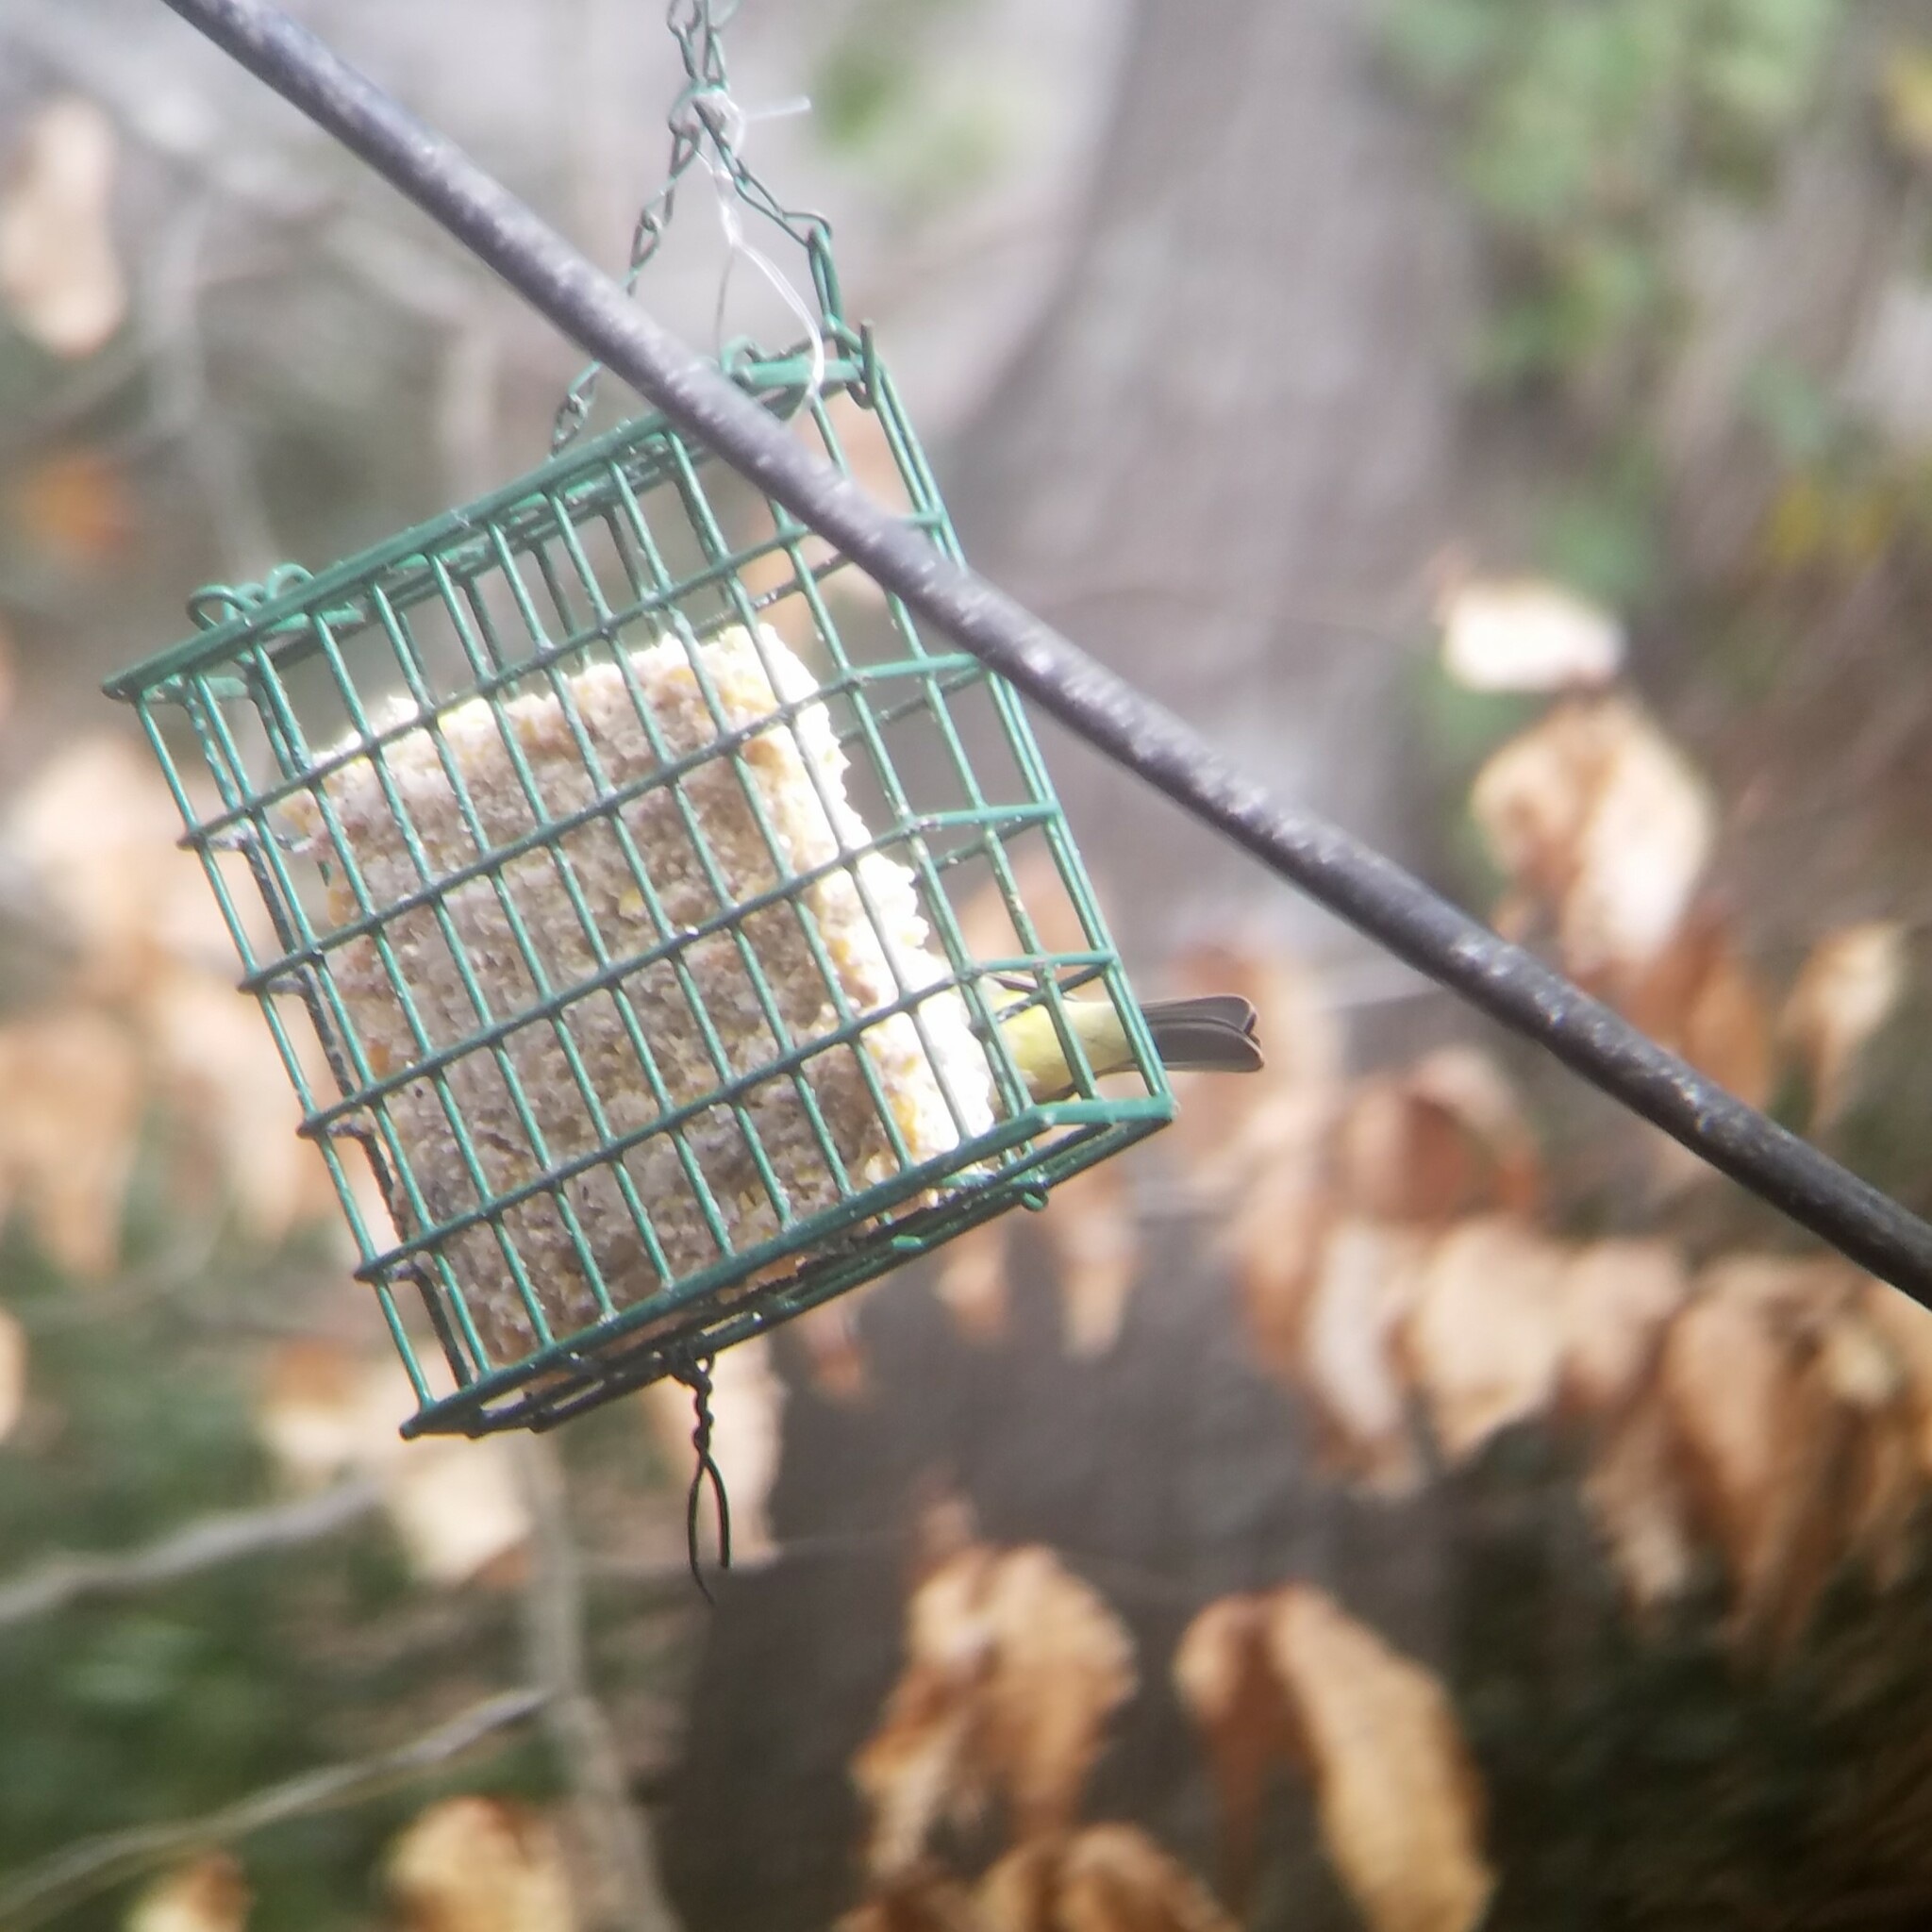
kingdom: Animalia
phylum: Chordata
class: Aves
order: Passeriformes
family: Parulidae
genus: Leiothlypis
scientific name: Leiothlypis celata
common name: Orange-crowned warbler
